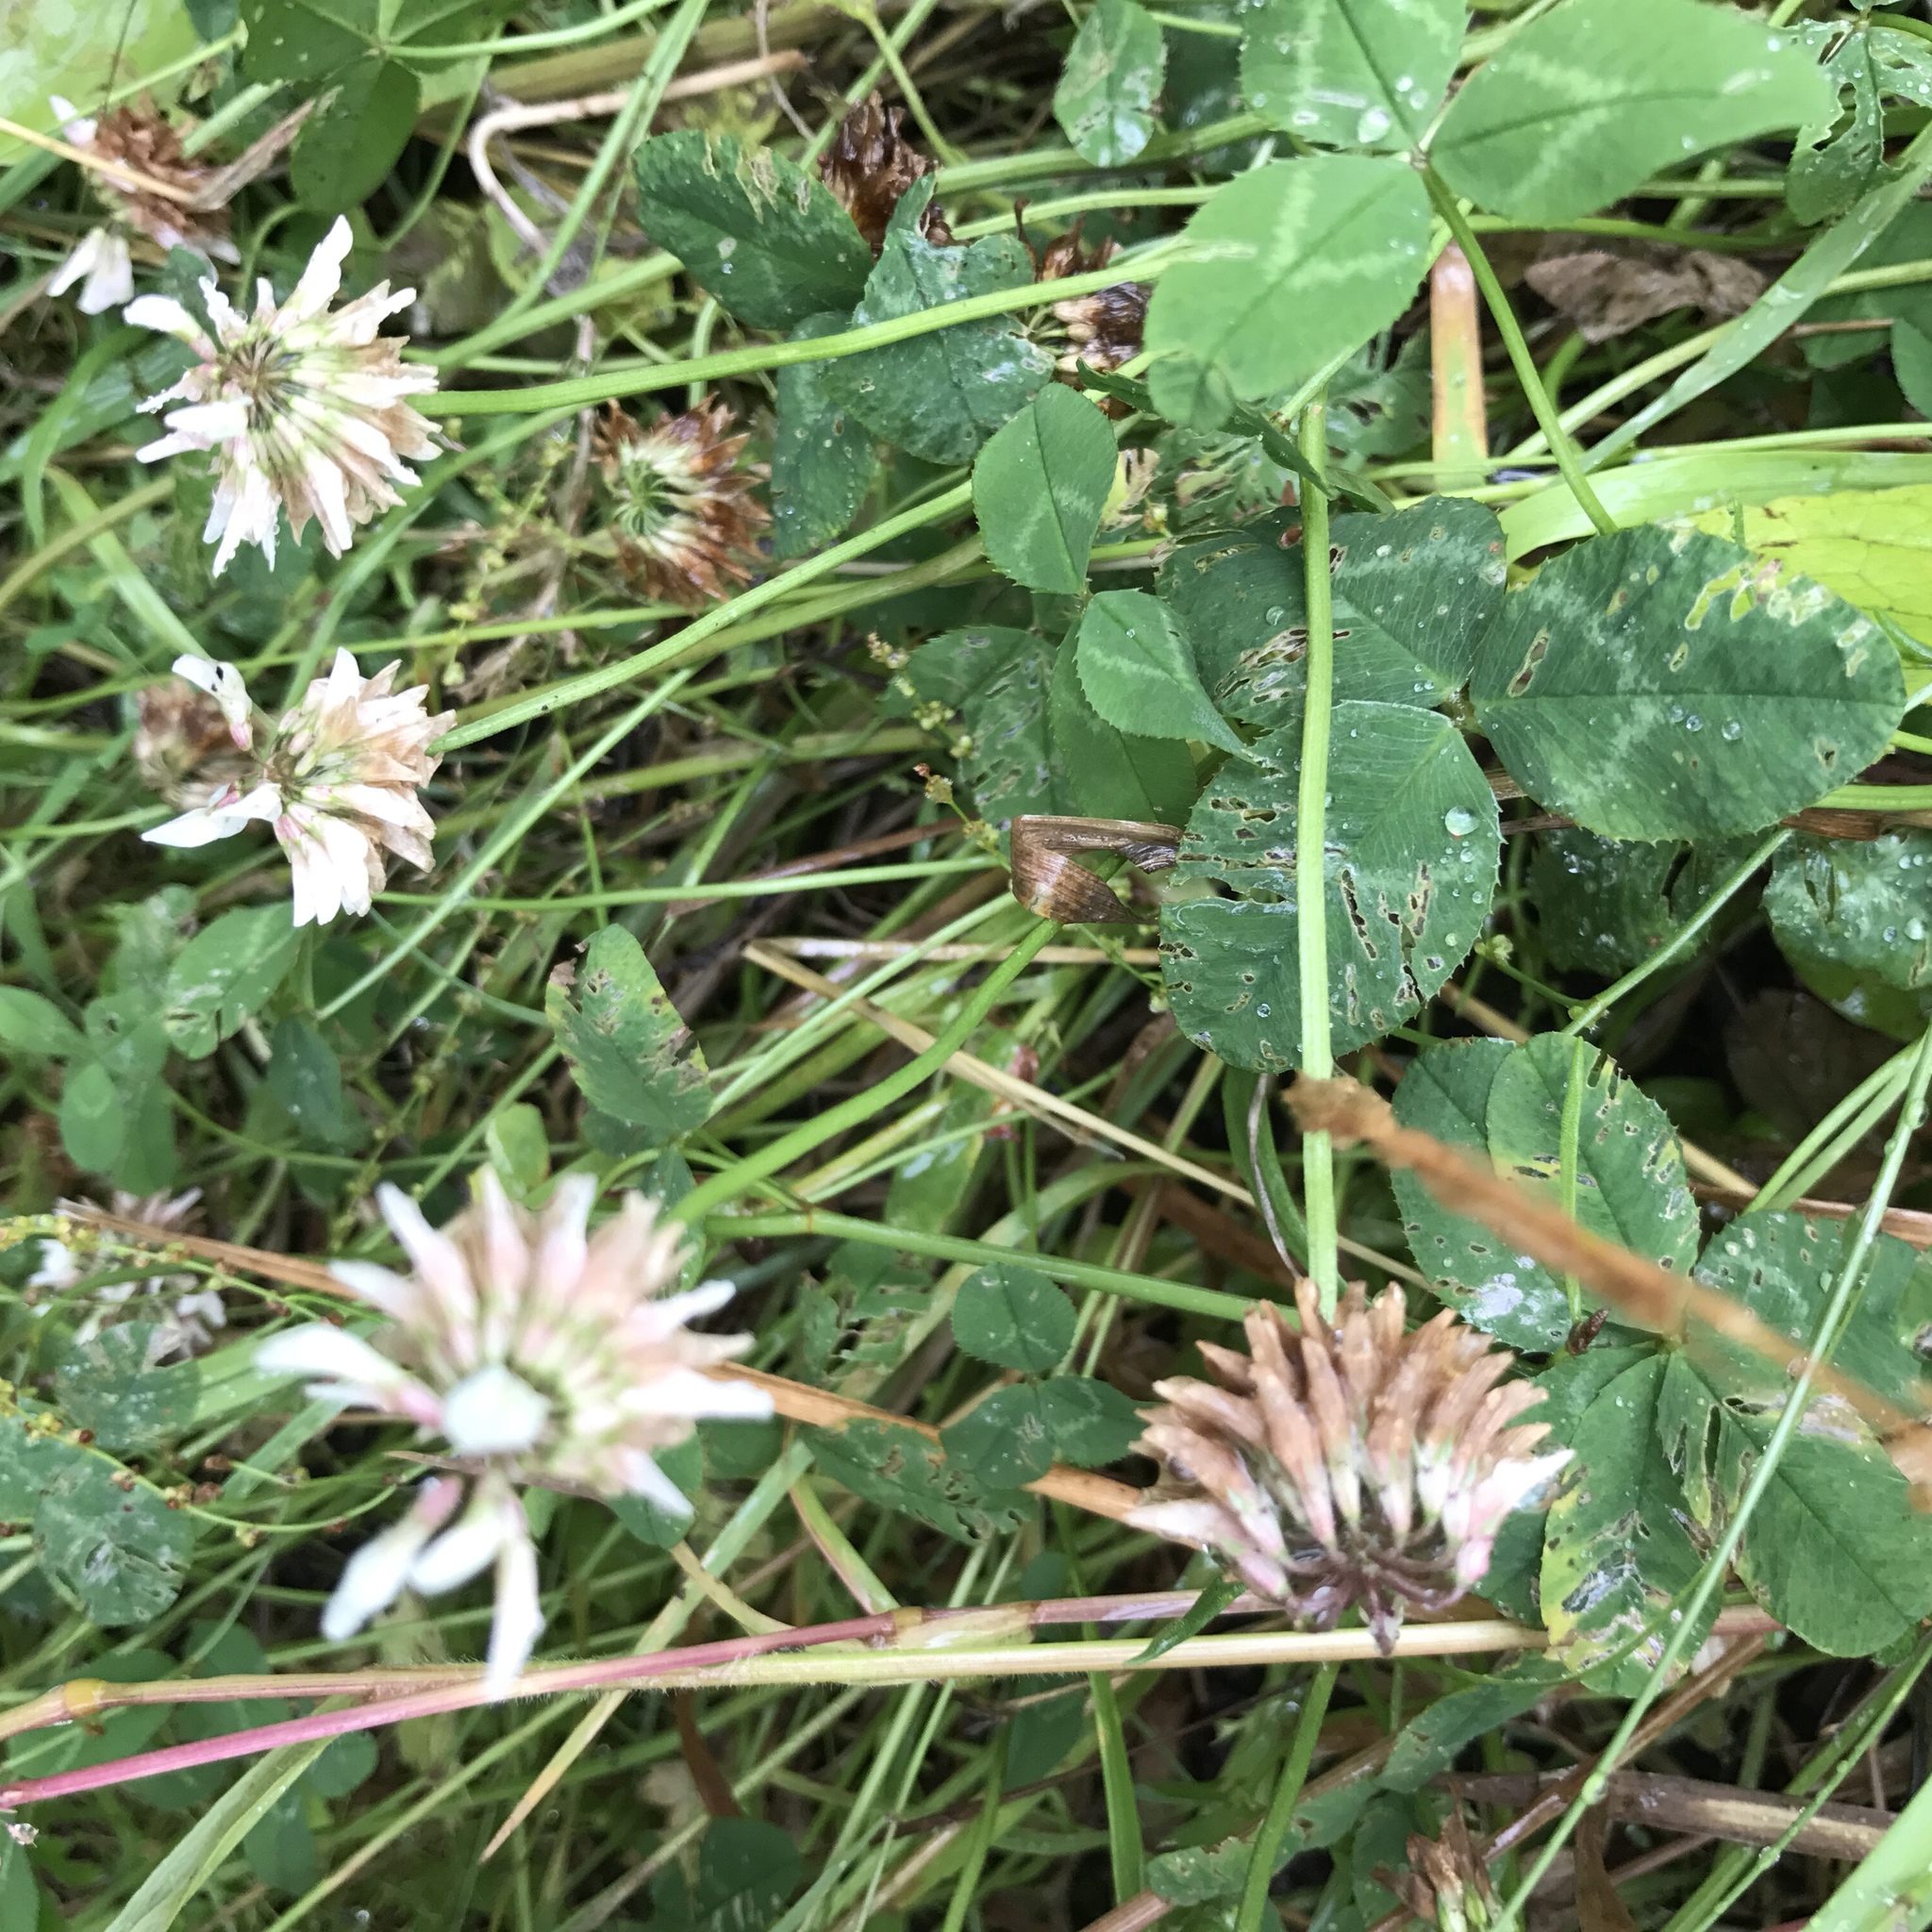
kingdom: Plantae
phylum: Tracheophyta
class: Magnoliopsida
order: Fabales
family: Fabaceae
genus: Trifolium
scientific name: Trifolium repens
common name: White clover
